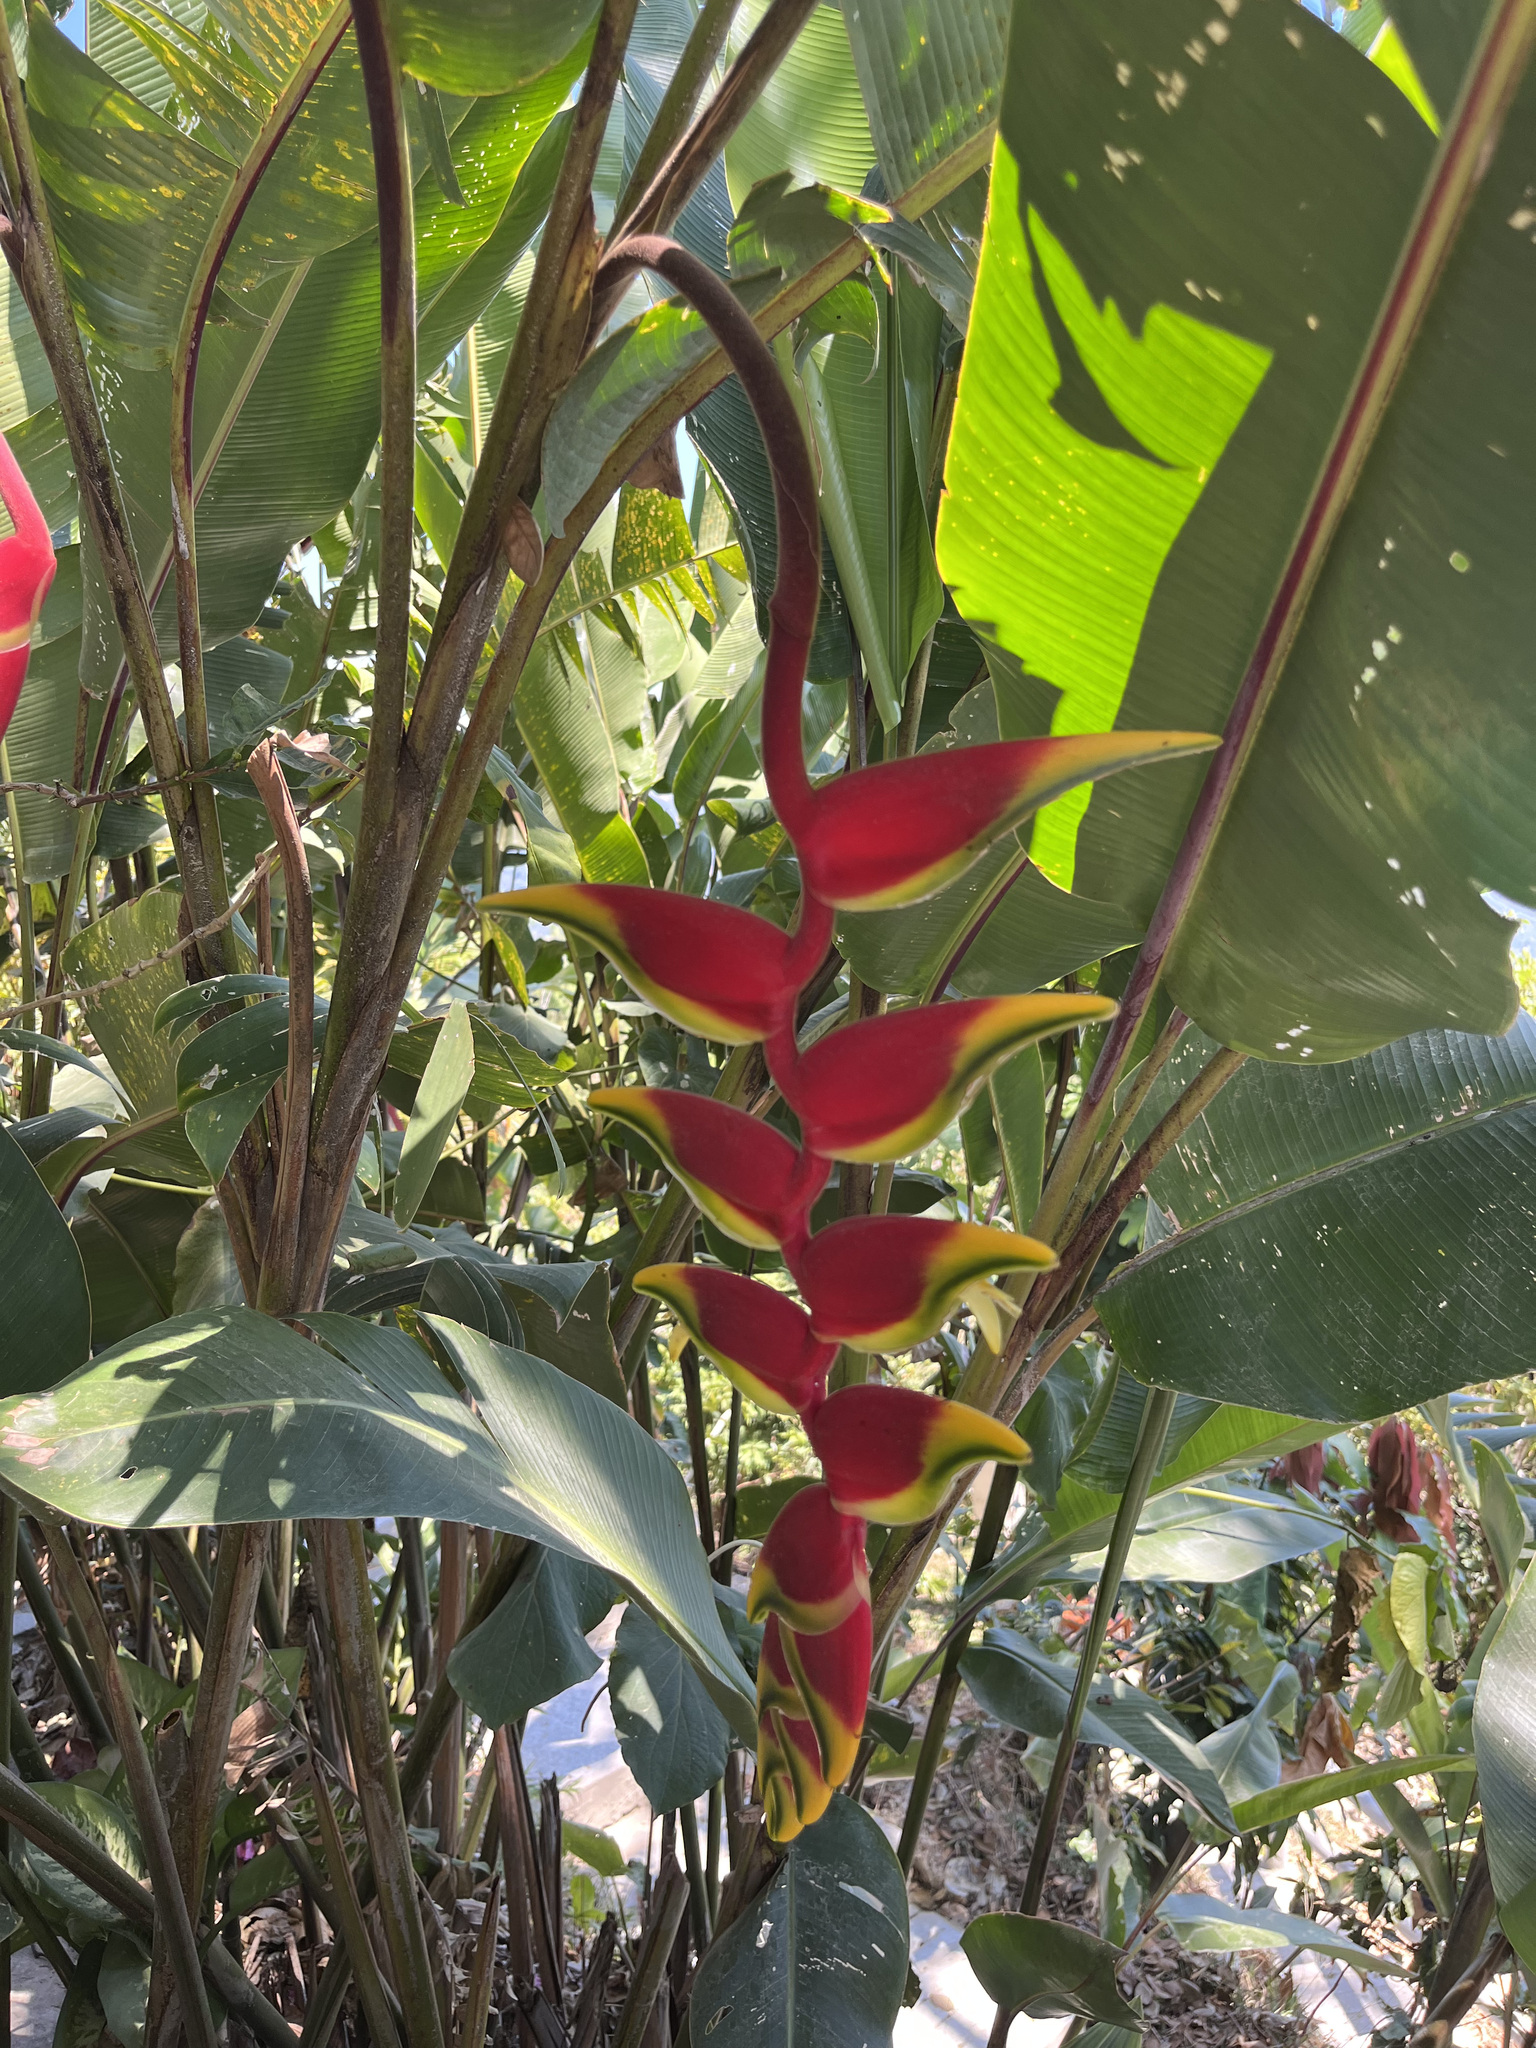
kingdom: Plantae
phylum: Tracheophyta
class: Liliopsida
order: Zingiberales
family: Heliconiaceae
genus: Heliconia
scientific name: Heliconia rostrata
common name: False bird of paradise
